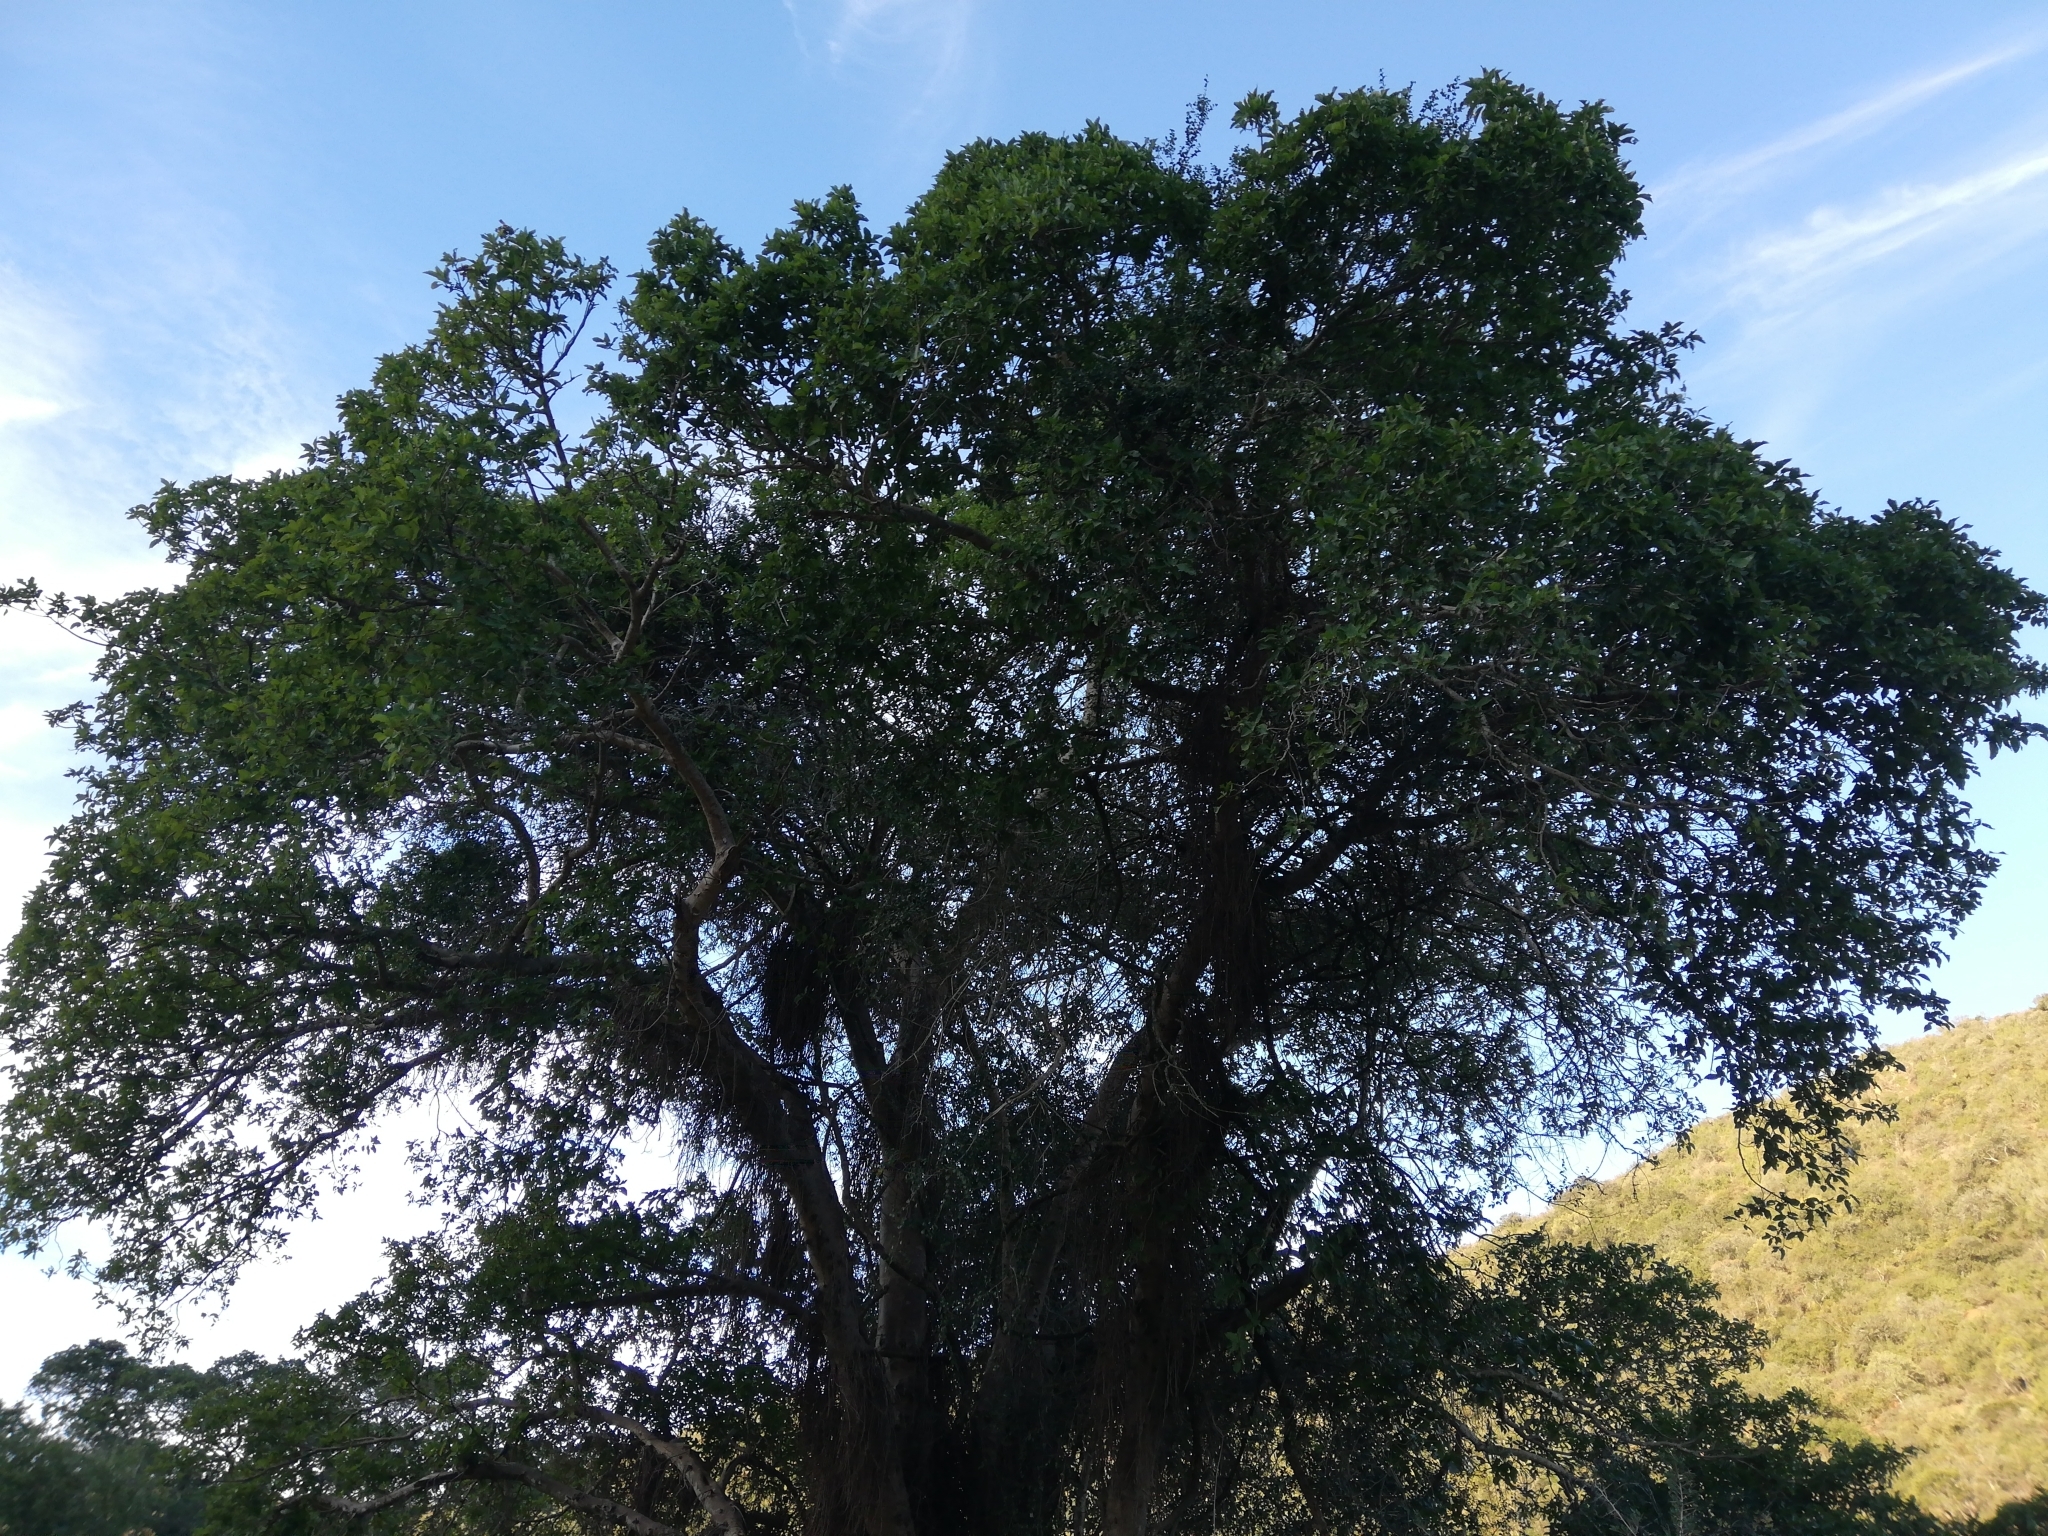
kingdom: Plantae
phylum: Tracheophyta
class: Magnoliopsida
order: Rosales
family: Moraceae
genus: Ficus
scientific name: Ficus sur
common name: Cape fig
